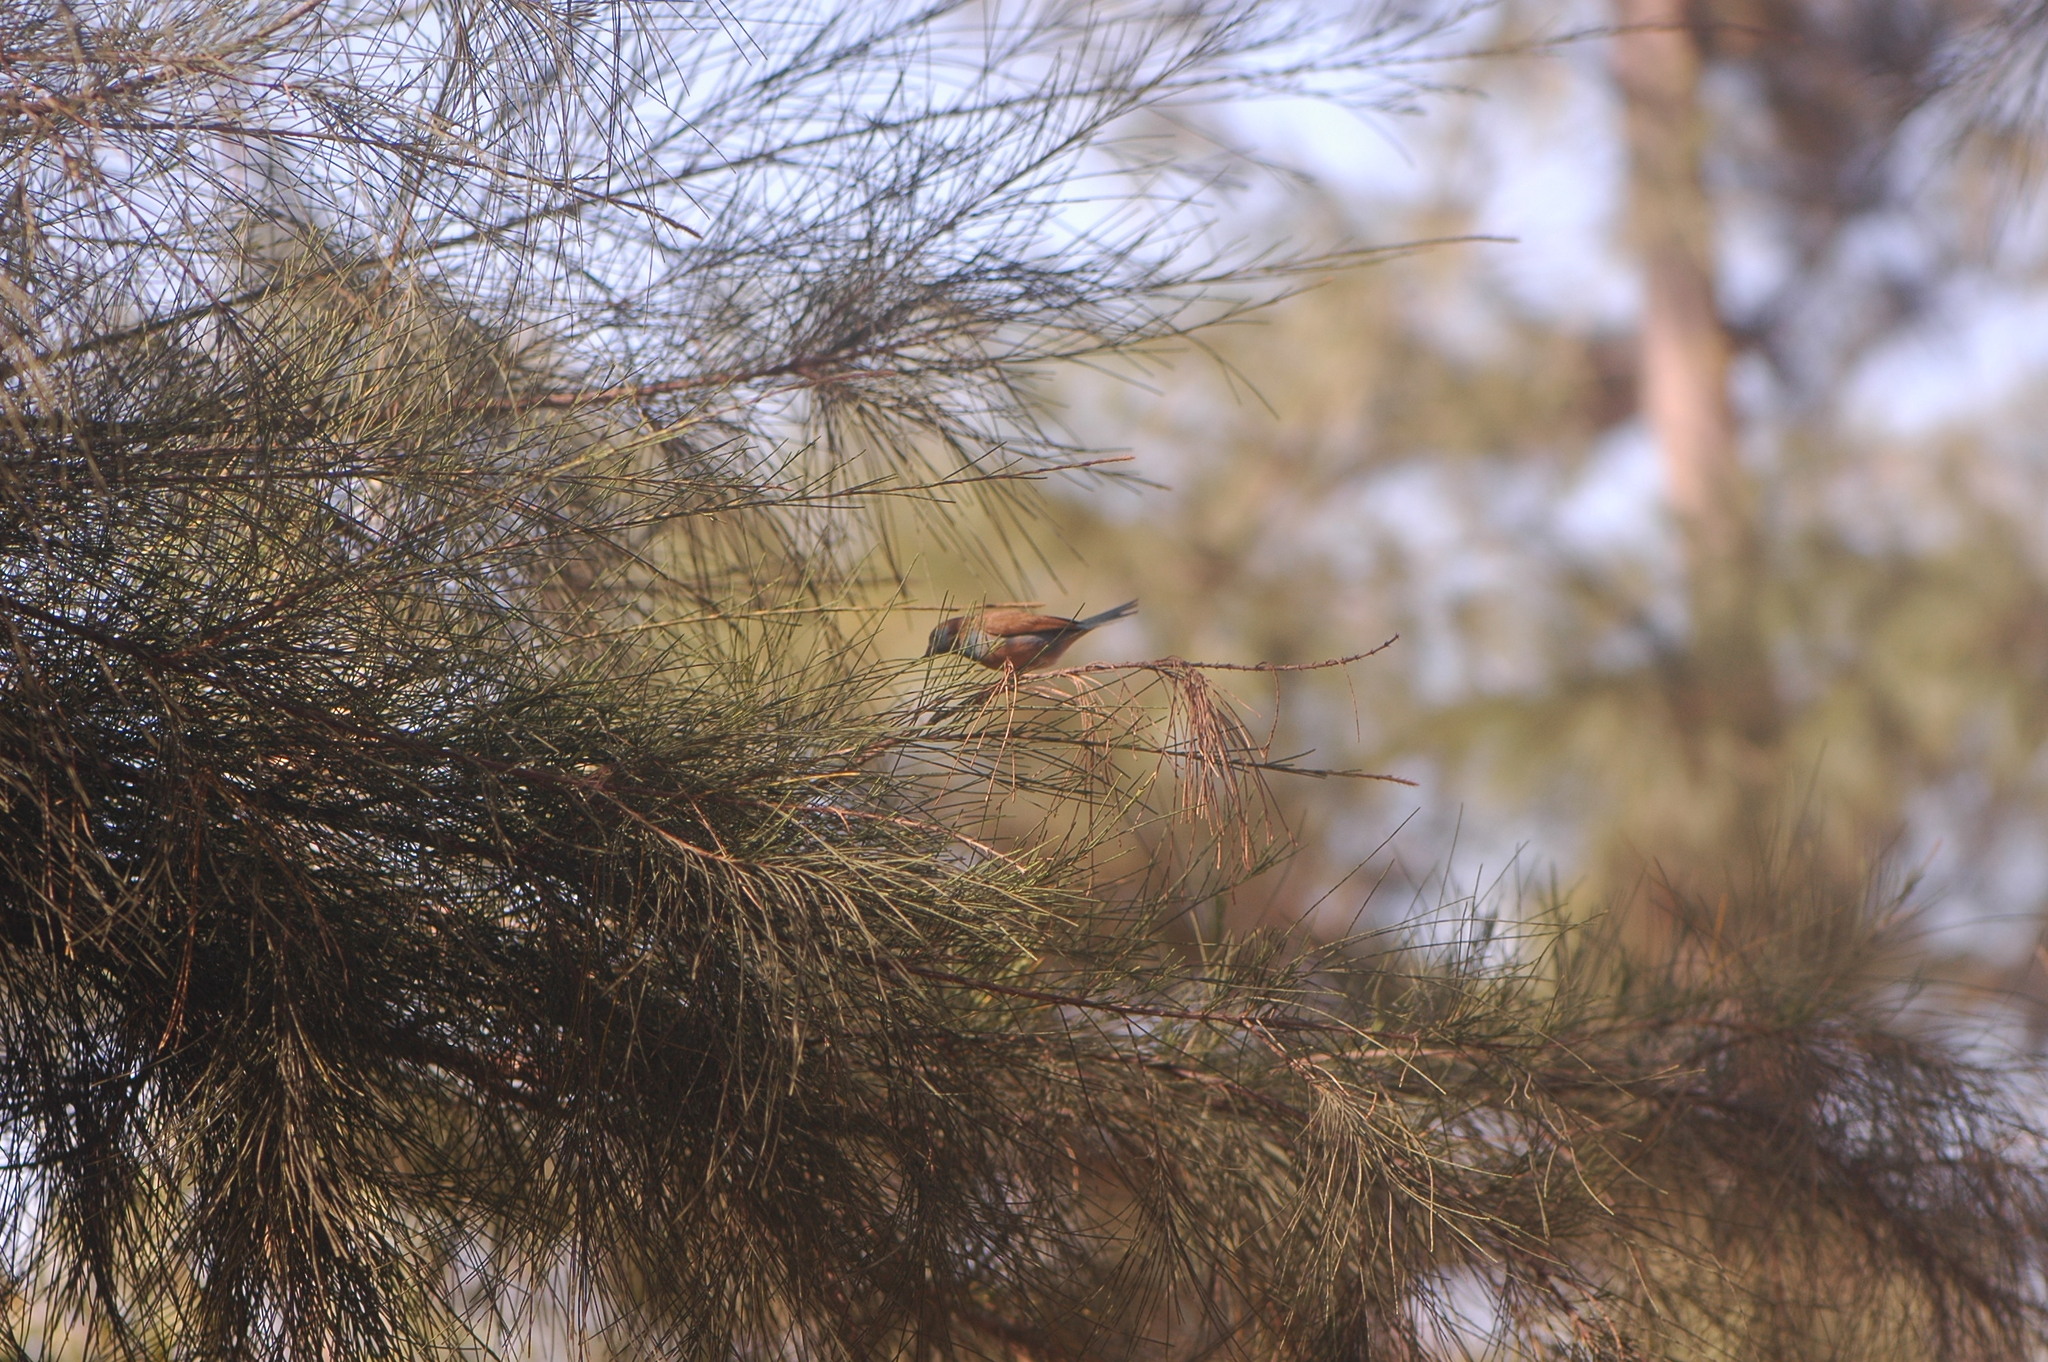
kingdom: Animalia
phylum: Chordata
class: Aves
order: Passeriformes
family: Estrildidae
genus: Uraeginthus
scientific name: Uraeginthus bengalus
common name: Red-cheeked cordon-bleu
